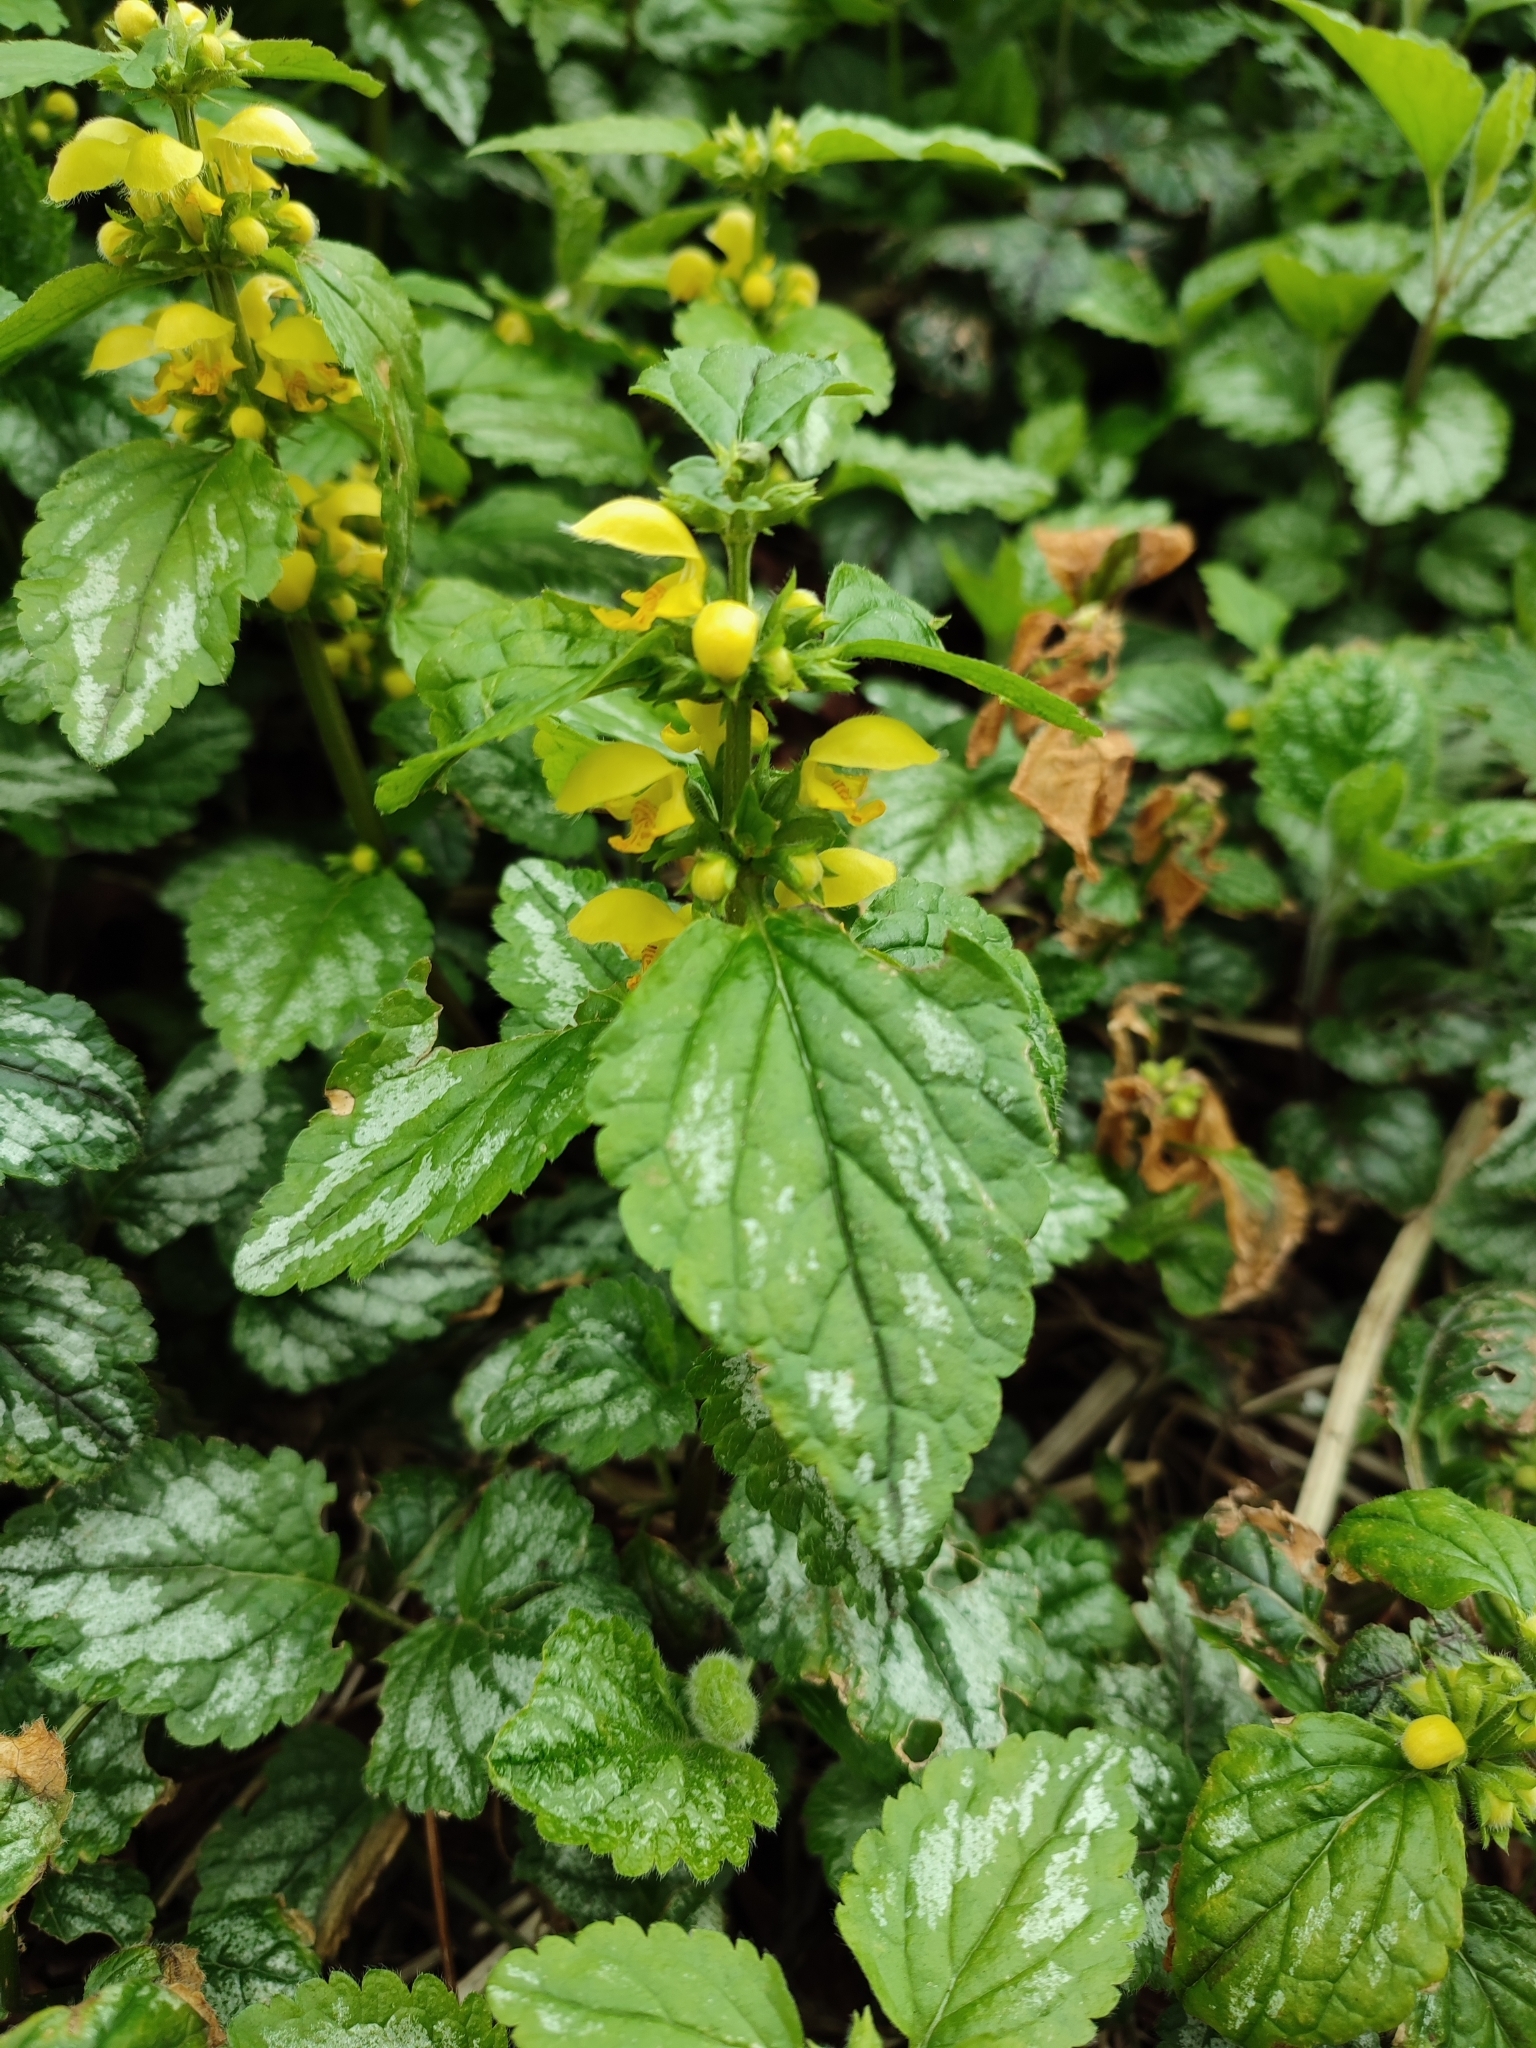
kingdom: Plantae
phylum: Tracheophyta
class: Magnoliopsida
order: Lamiales
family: Lamiaceae
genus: Lamium
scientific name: Lamium galeobdolon
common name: Yellow archangel
